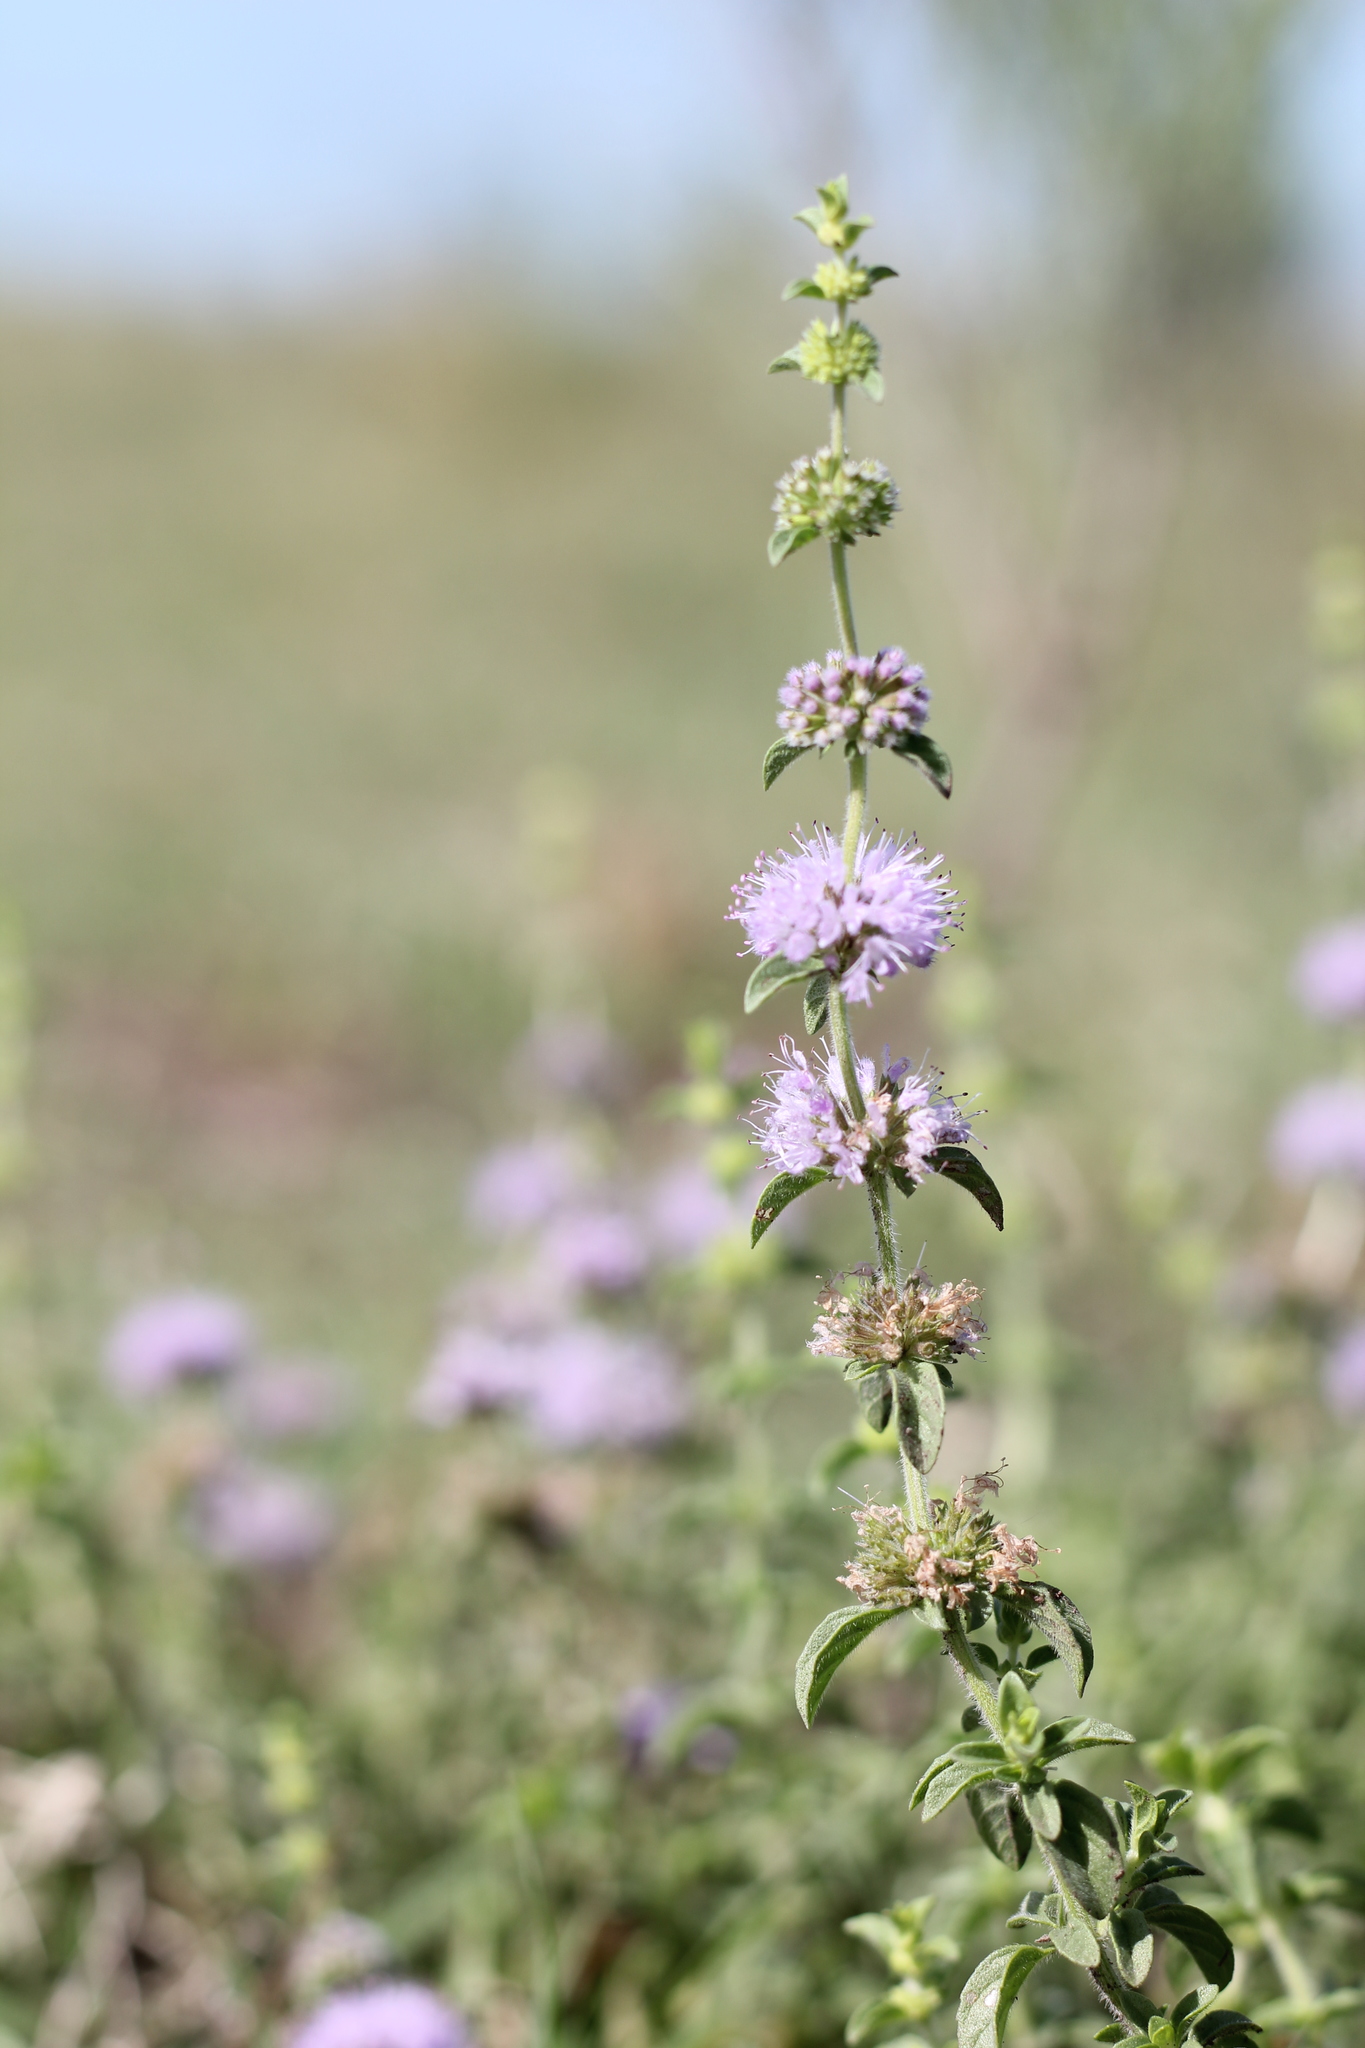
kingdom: Plantae
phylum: Tracheophyta
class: Magnoliopsida
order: Lamiales
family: Lamiaceae
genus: Mentha
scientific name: Mentha pulegium
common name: Pennyroyal
